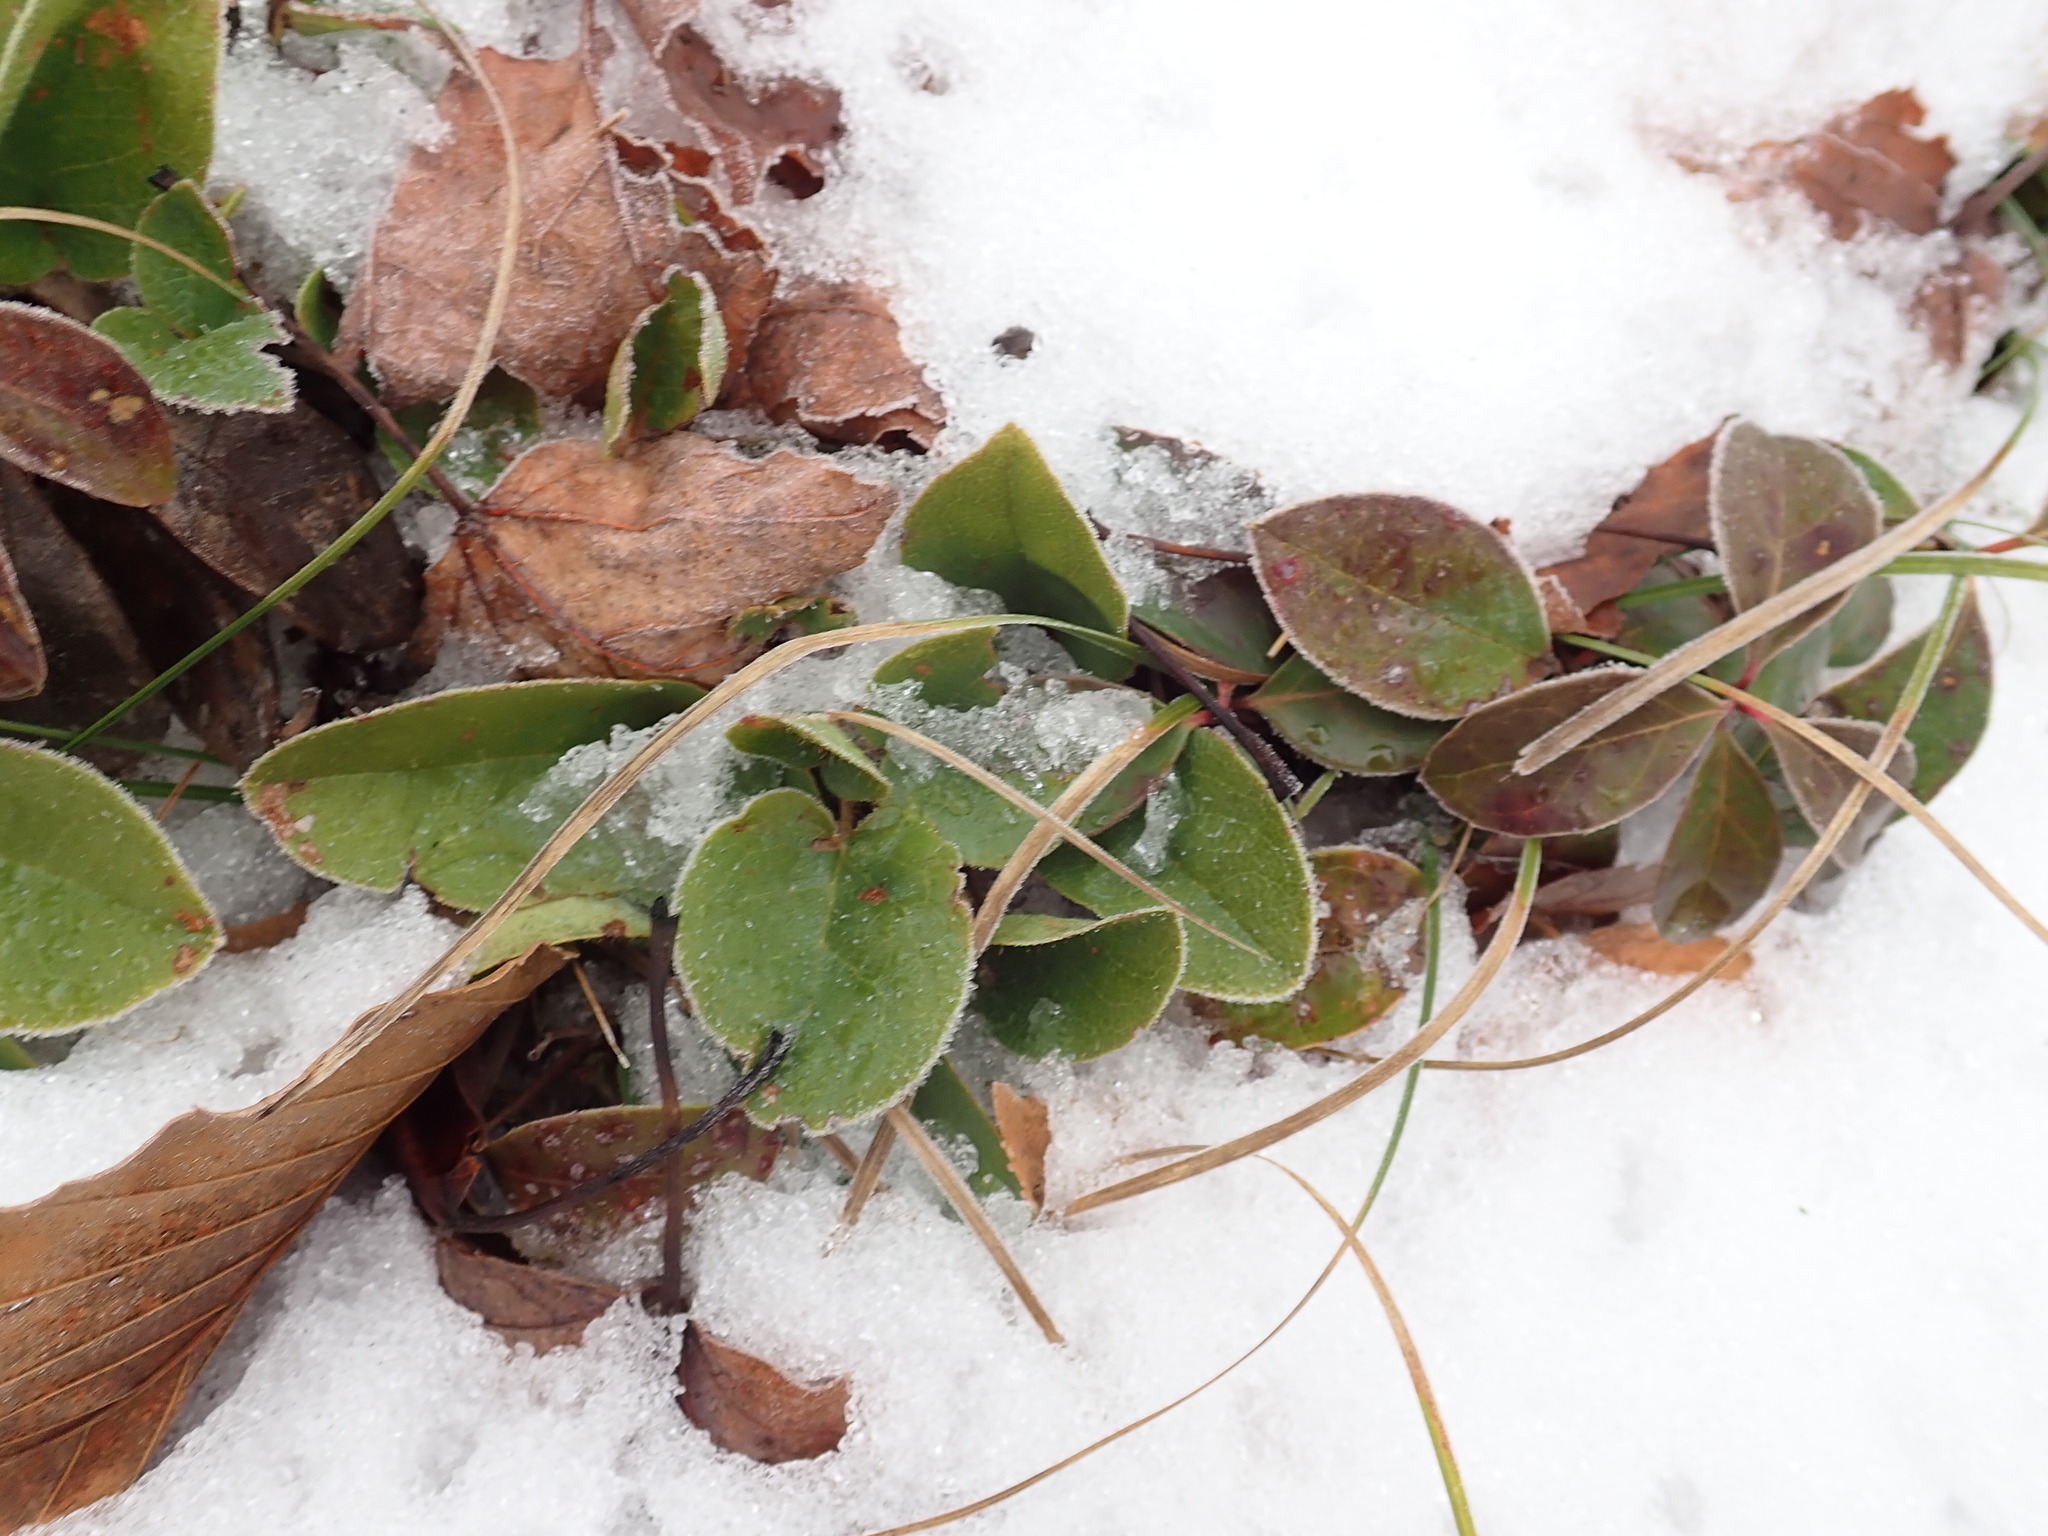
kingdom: Plantae
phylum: Tracheophyta
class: Magnoliopsida
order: Ericales
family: Ericaceae
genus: Epigaea
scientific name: Epigaea repens
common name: Gravelroot
